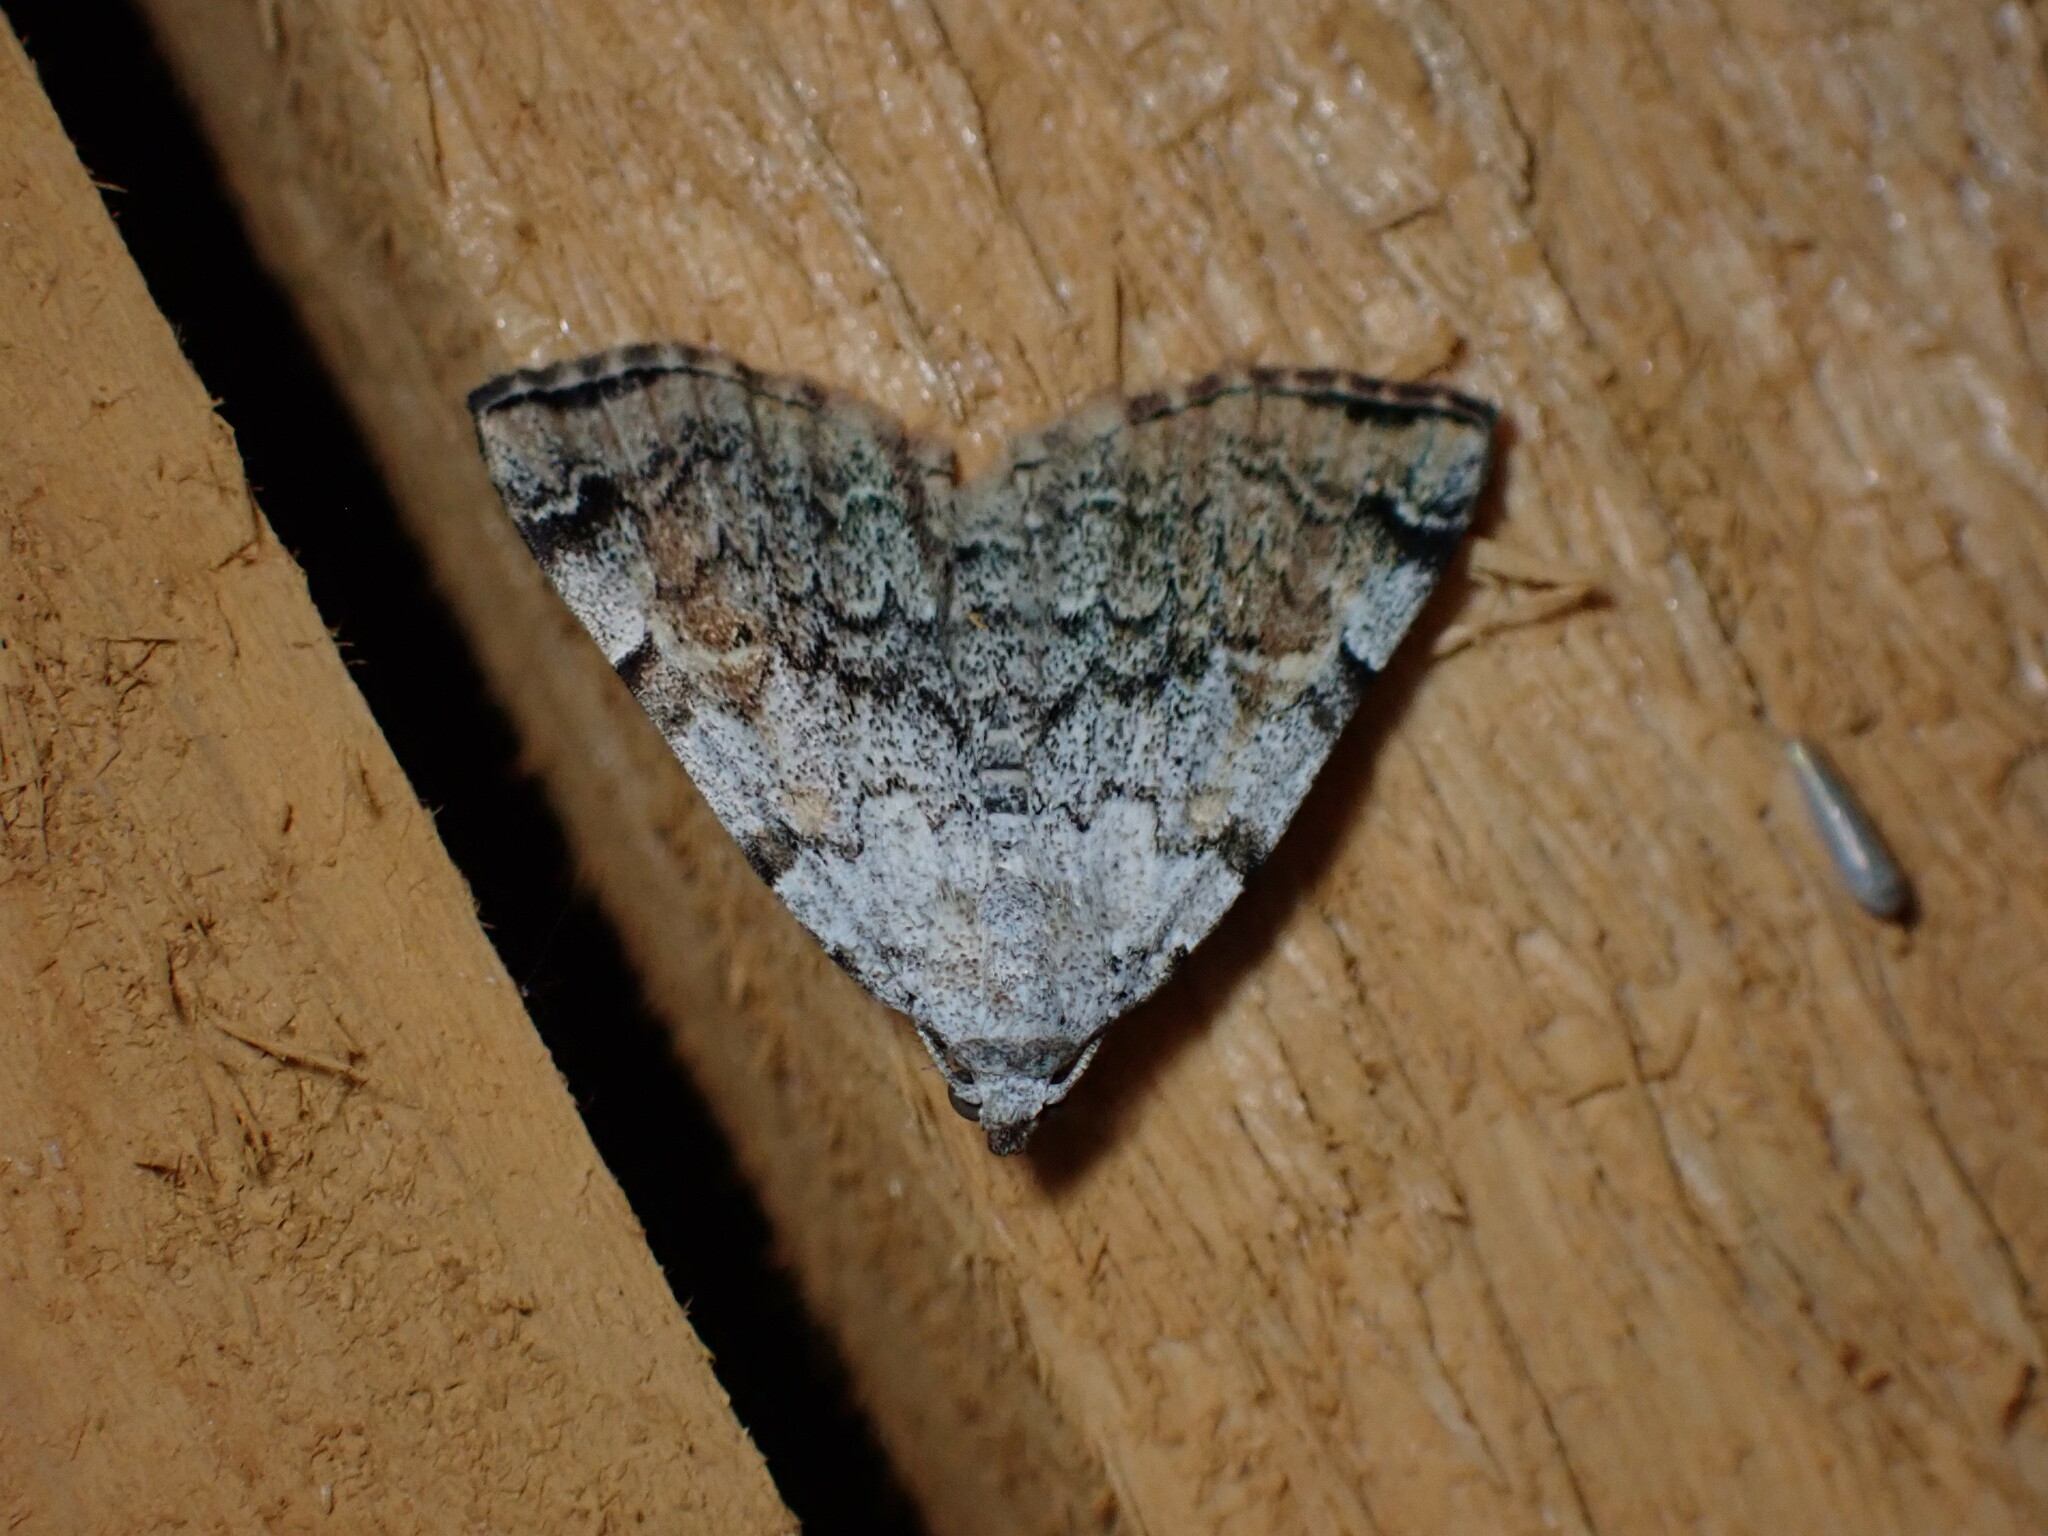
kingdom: Animalia
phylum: Arthropoda
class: Insecta
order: Lepidoptera
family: Erebidae
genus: Idia
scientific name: Idia americalis
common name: American idia moth
